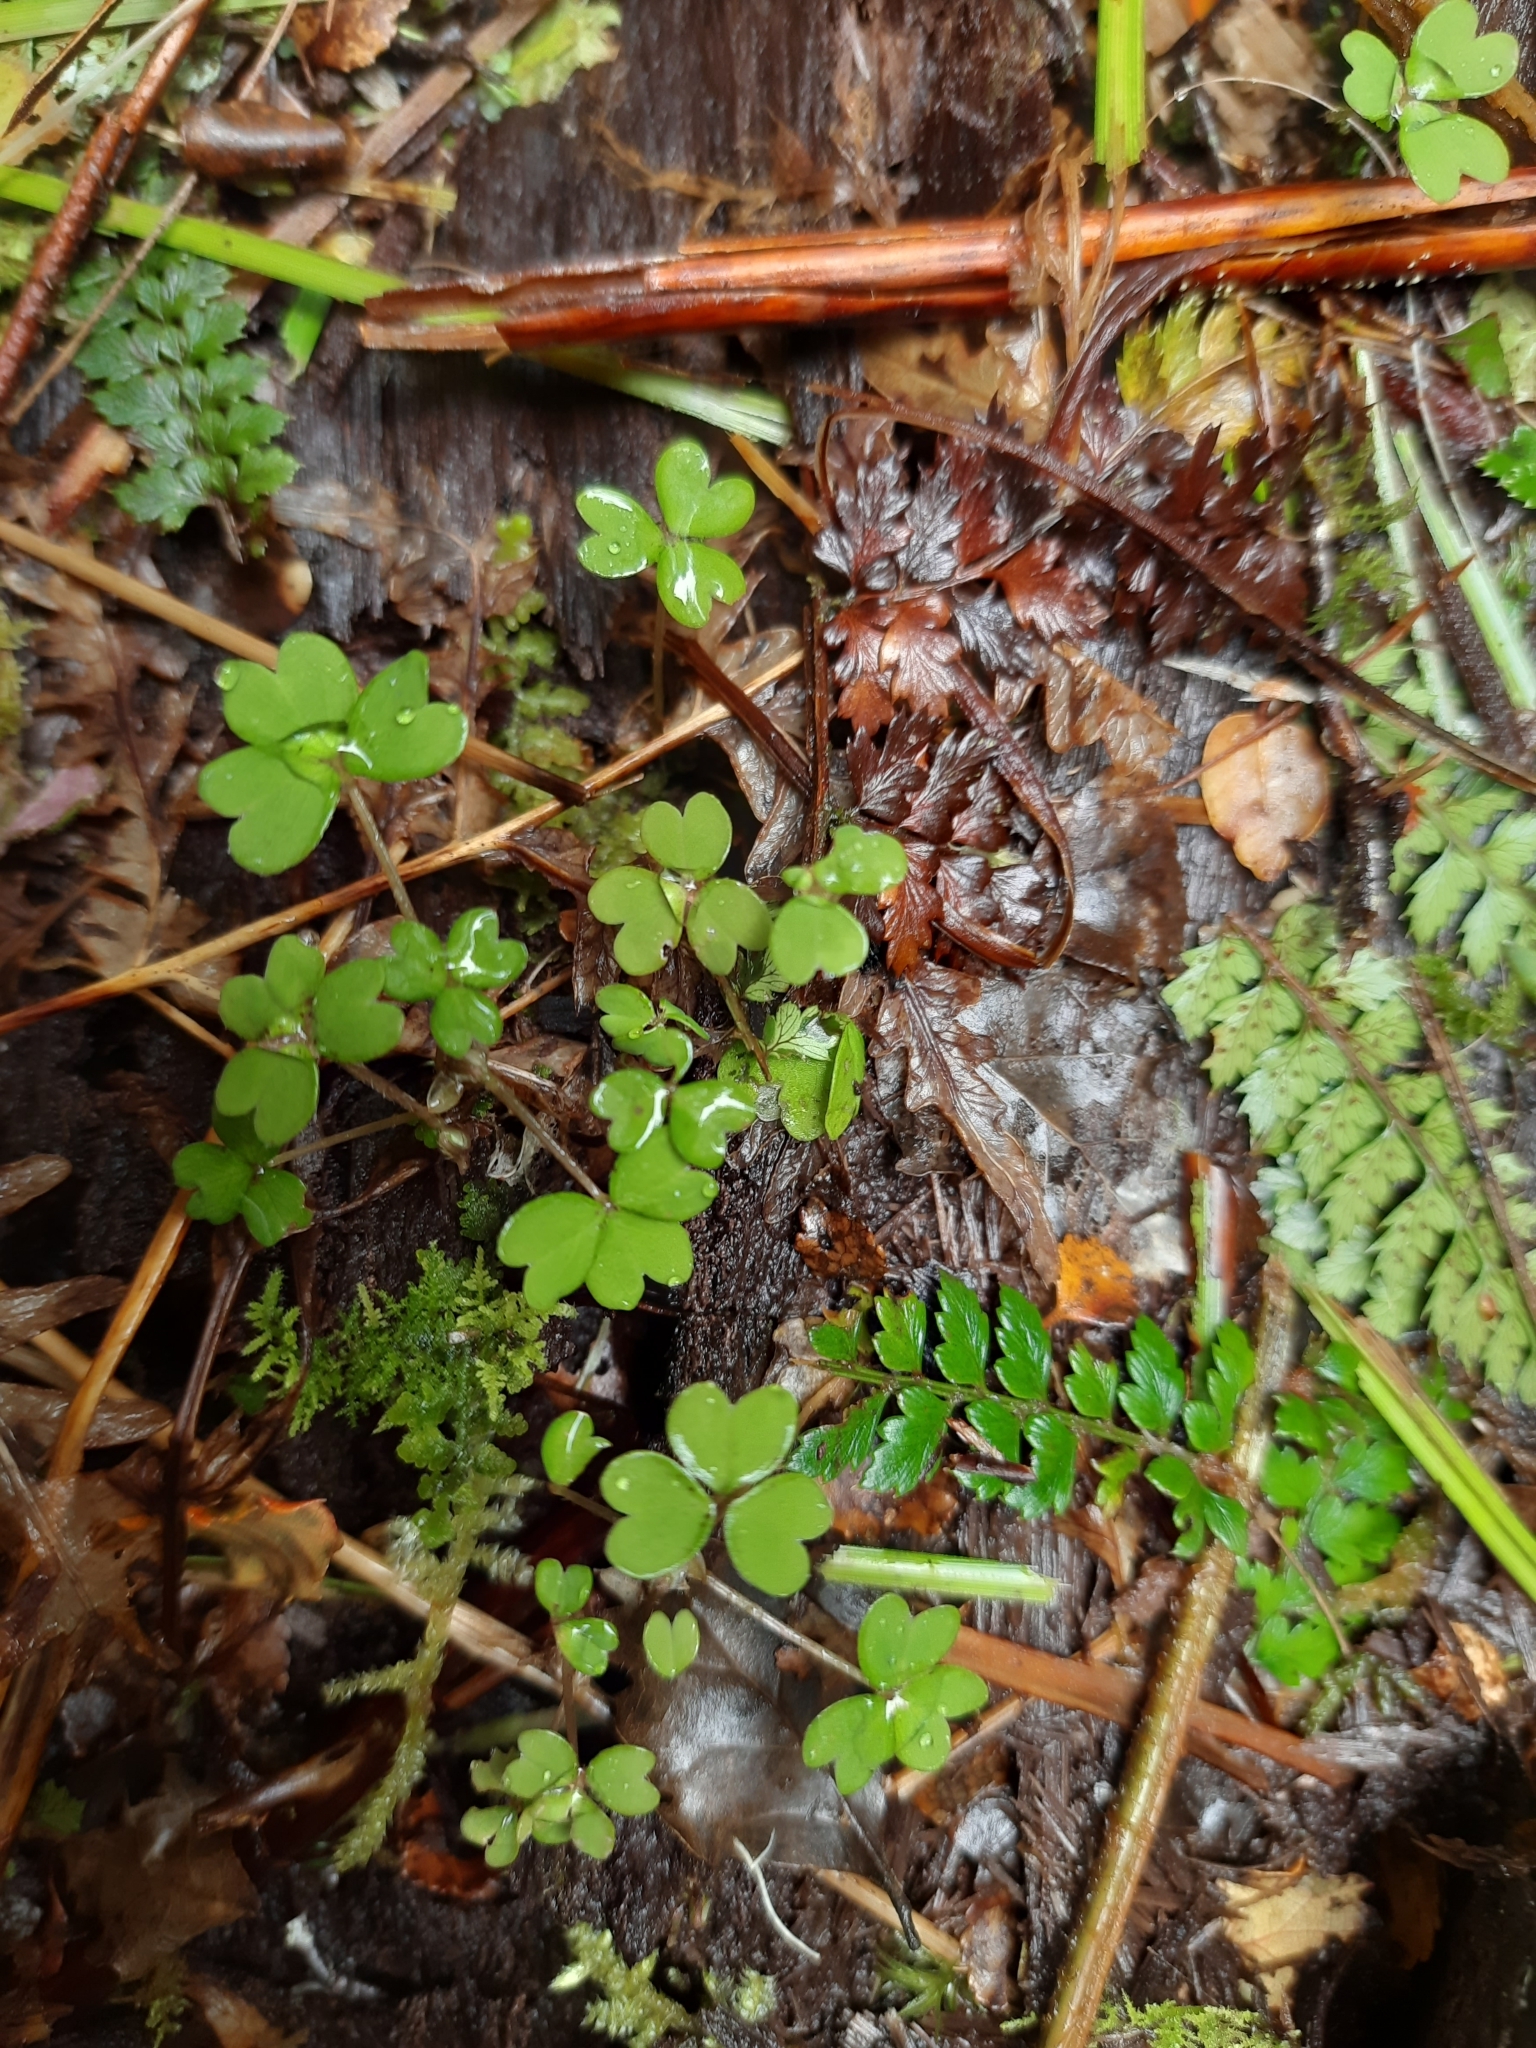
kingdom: Plantae
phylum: Tracheophyta
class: Magnoliopsida
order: Oxalidales
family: Oxalidaceae
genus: Oxalis
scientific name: Oxalis magellanica
